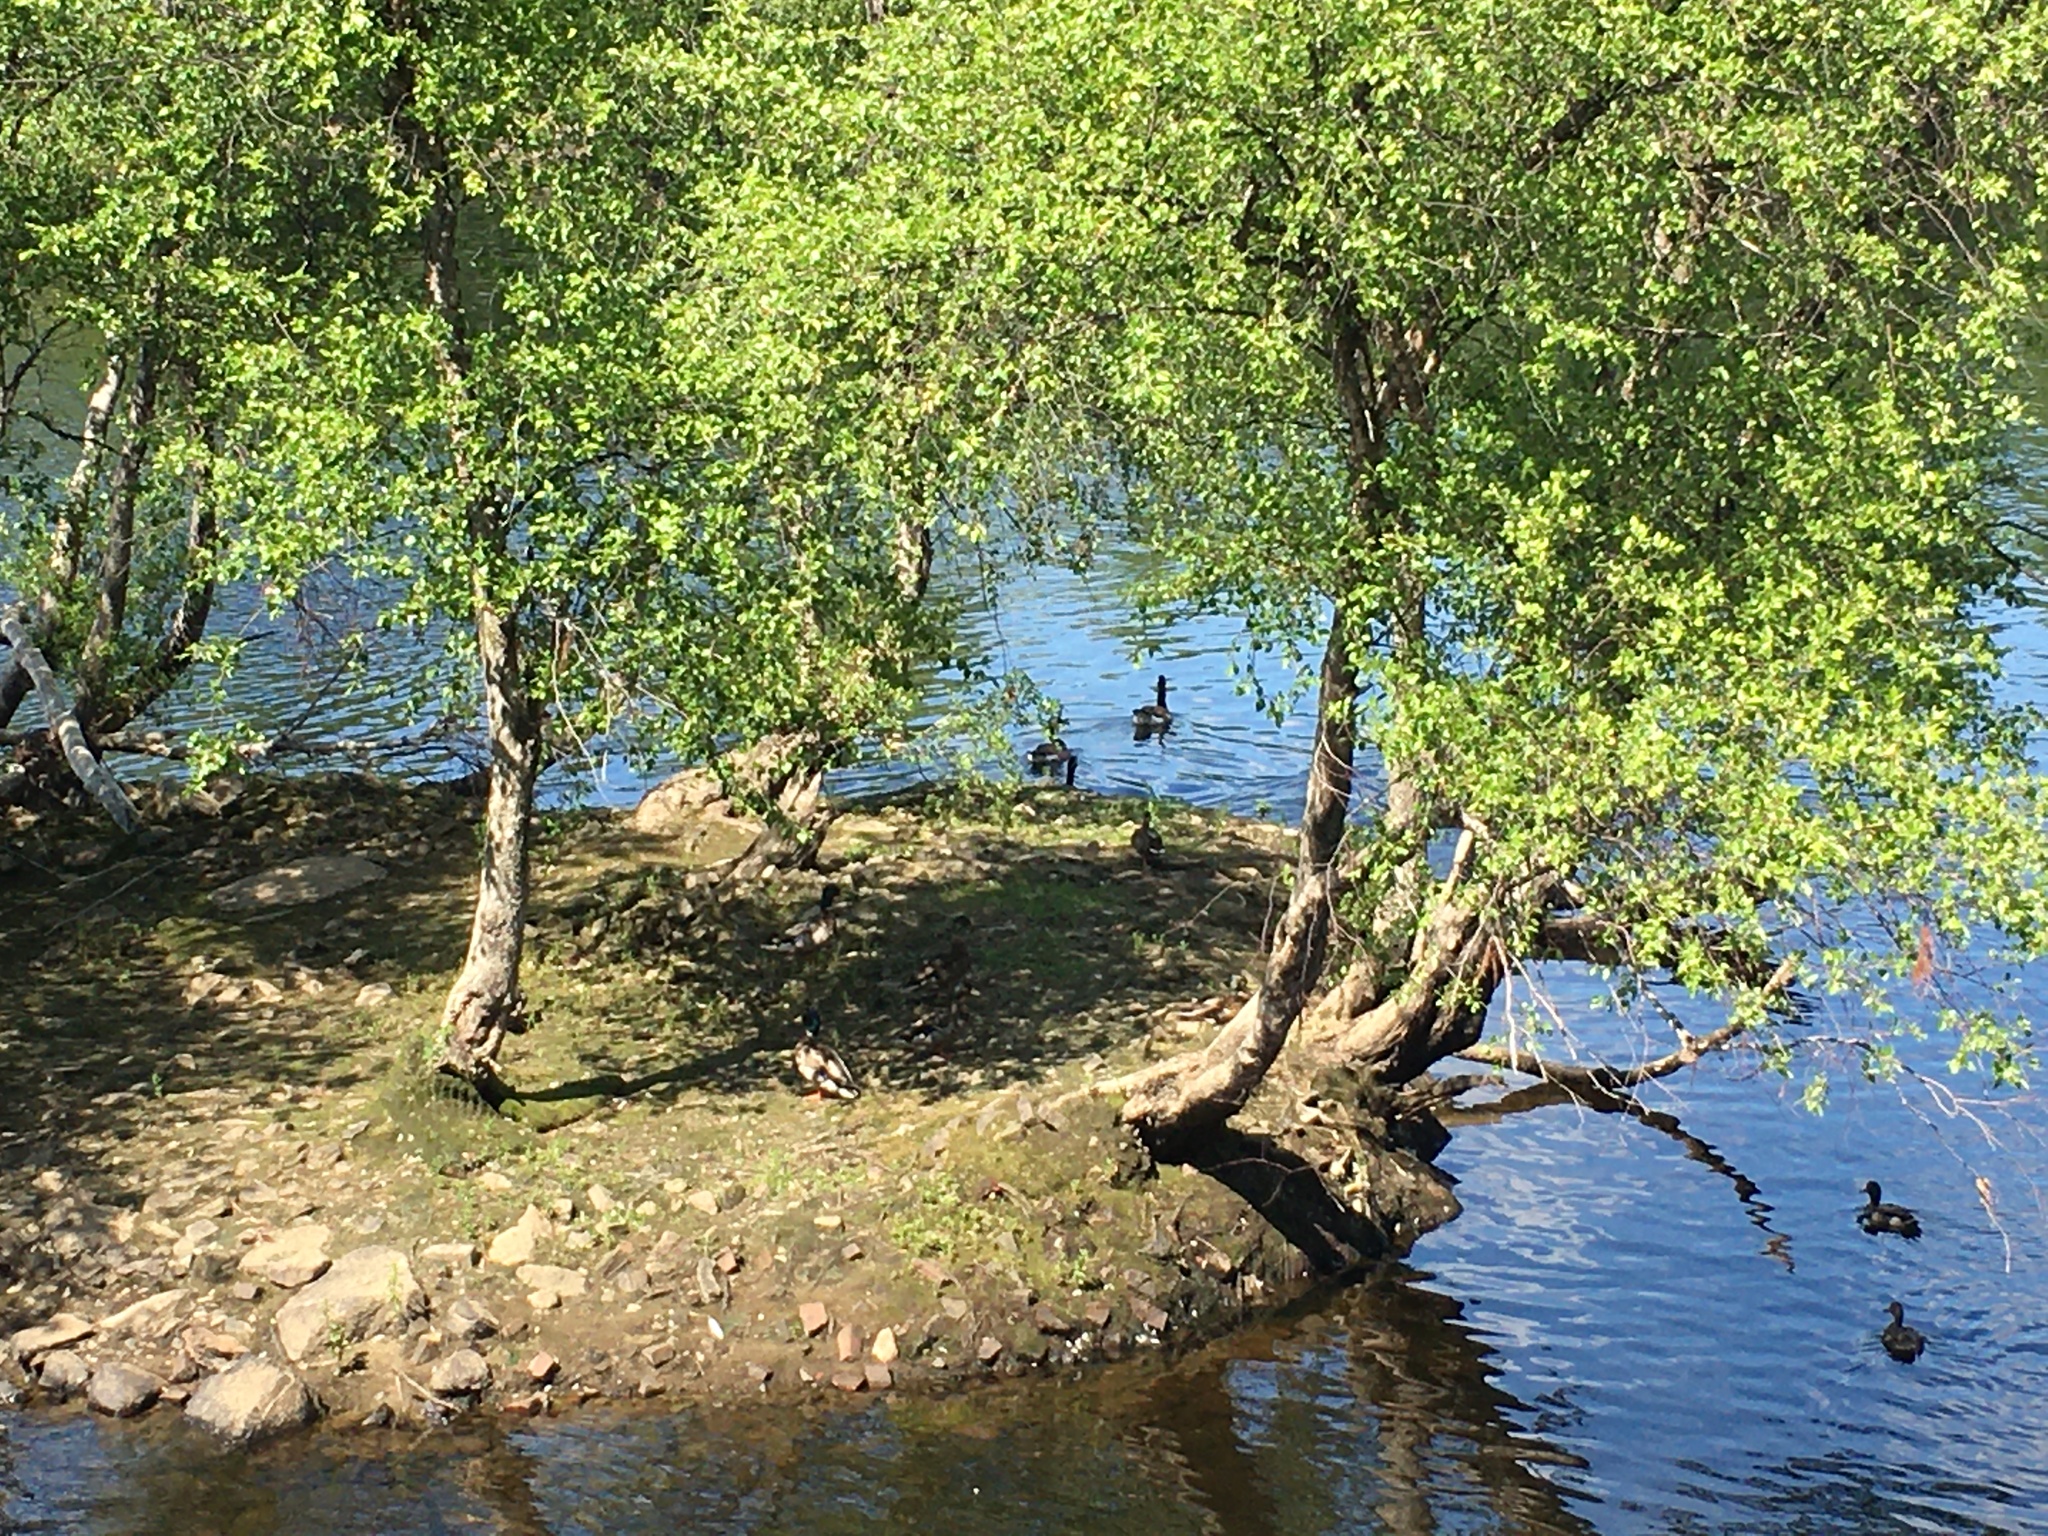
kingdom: Animalia
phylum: Chordata
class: Aves
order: Anseriformes
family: Anatidae
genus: Branta
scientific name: Branta canadensis
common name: Canada goose
